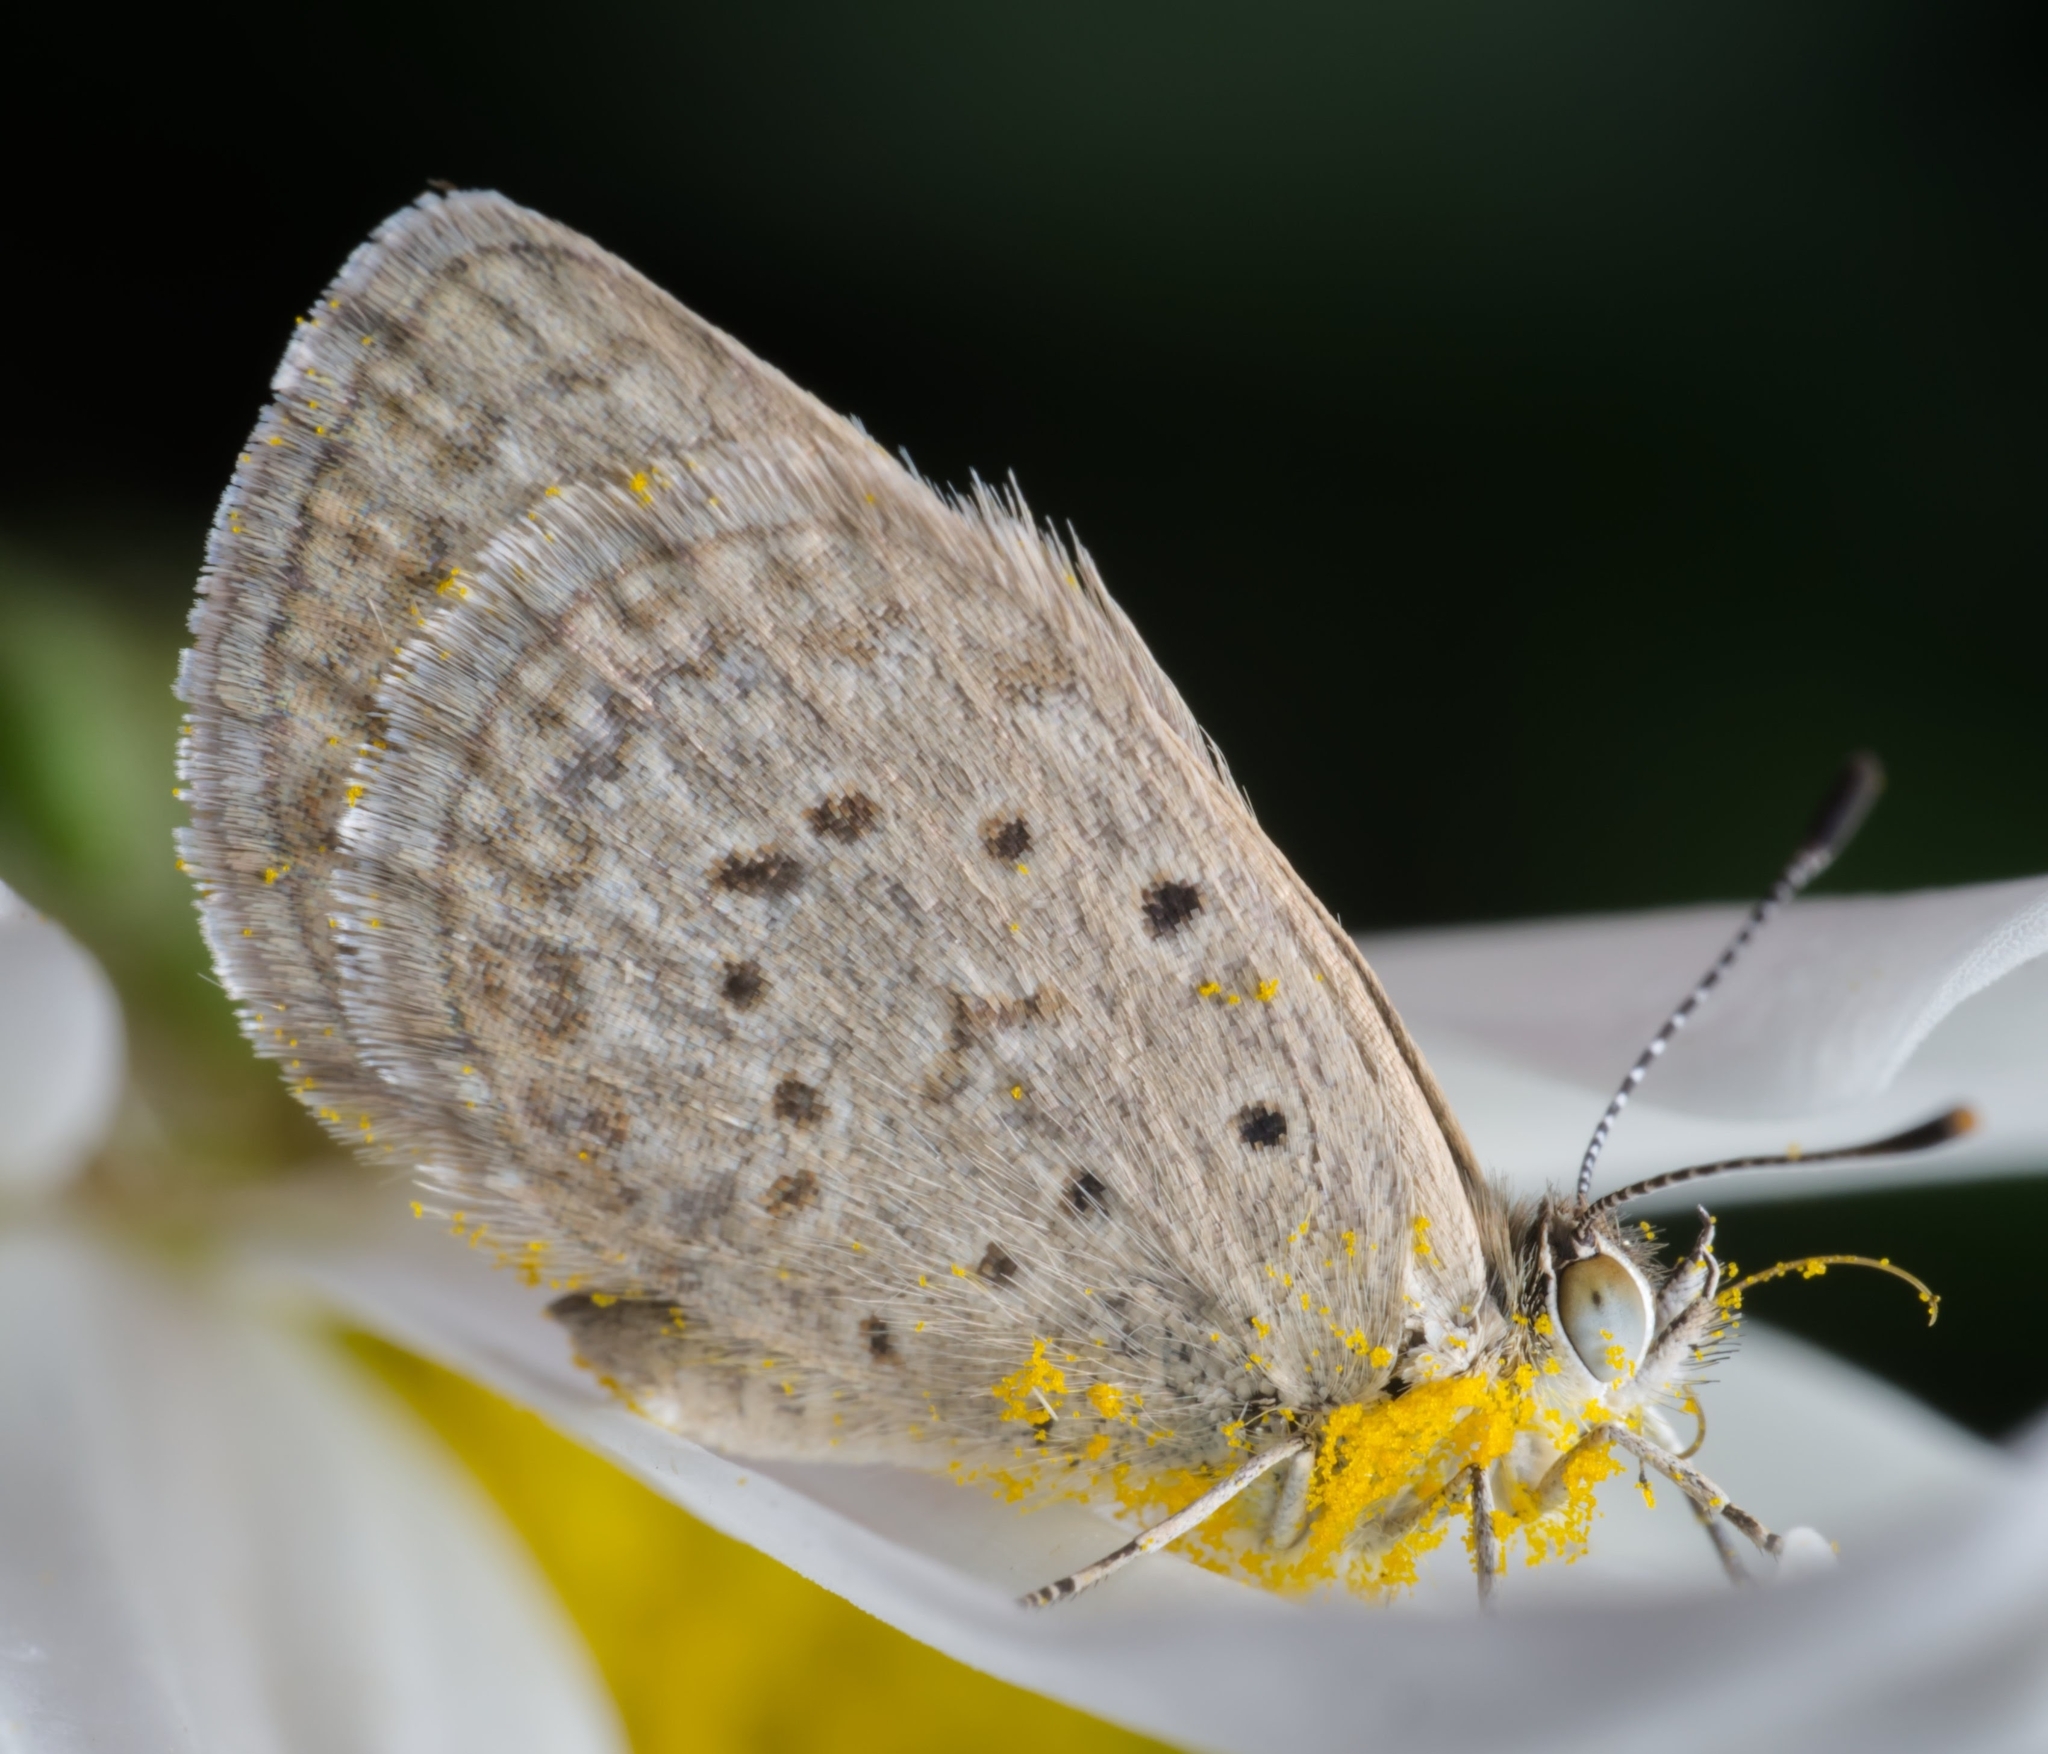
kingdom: Animalia
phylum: Arthropoda
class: Insecta
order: Lepidoptera
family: Lycaenidae
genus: Zizeeria
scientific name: Zizeeria knysna
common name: African grass blue
